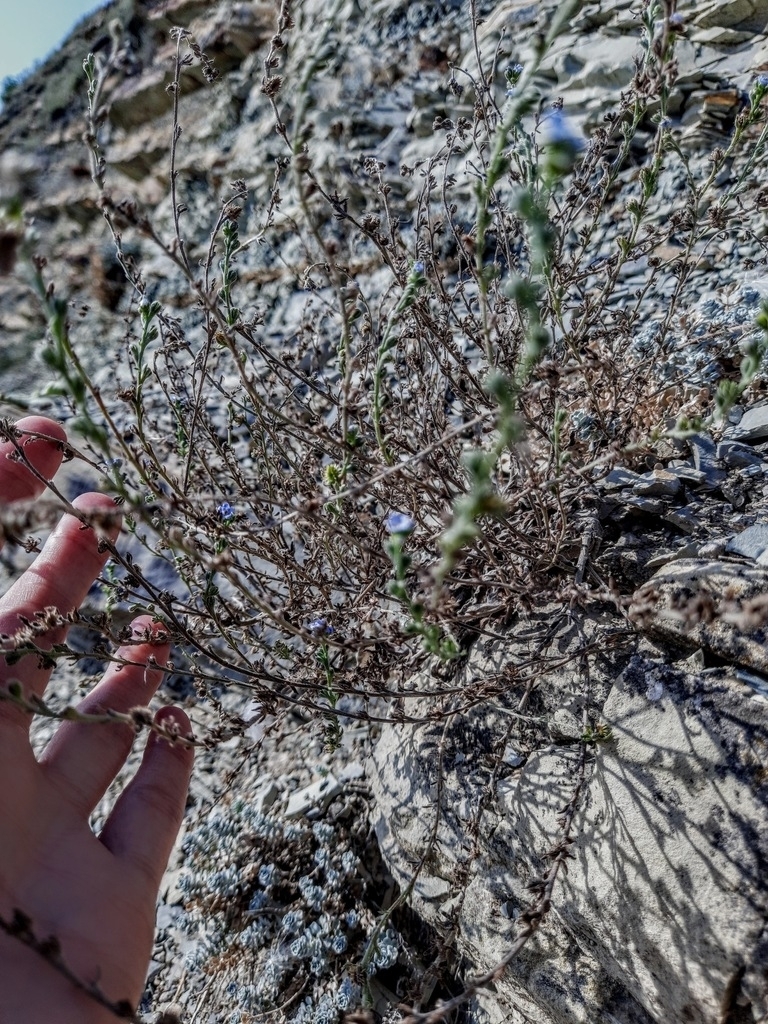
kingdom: Plantae
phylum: Tracheophyta
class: Magnoliopsida
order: Boraginales
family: Boraginaceae
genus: Lappula
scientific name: Lappula barbata
